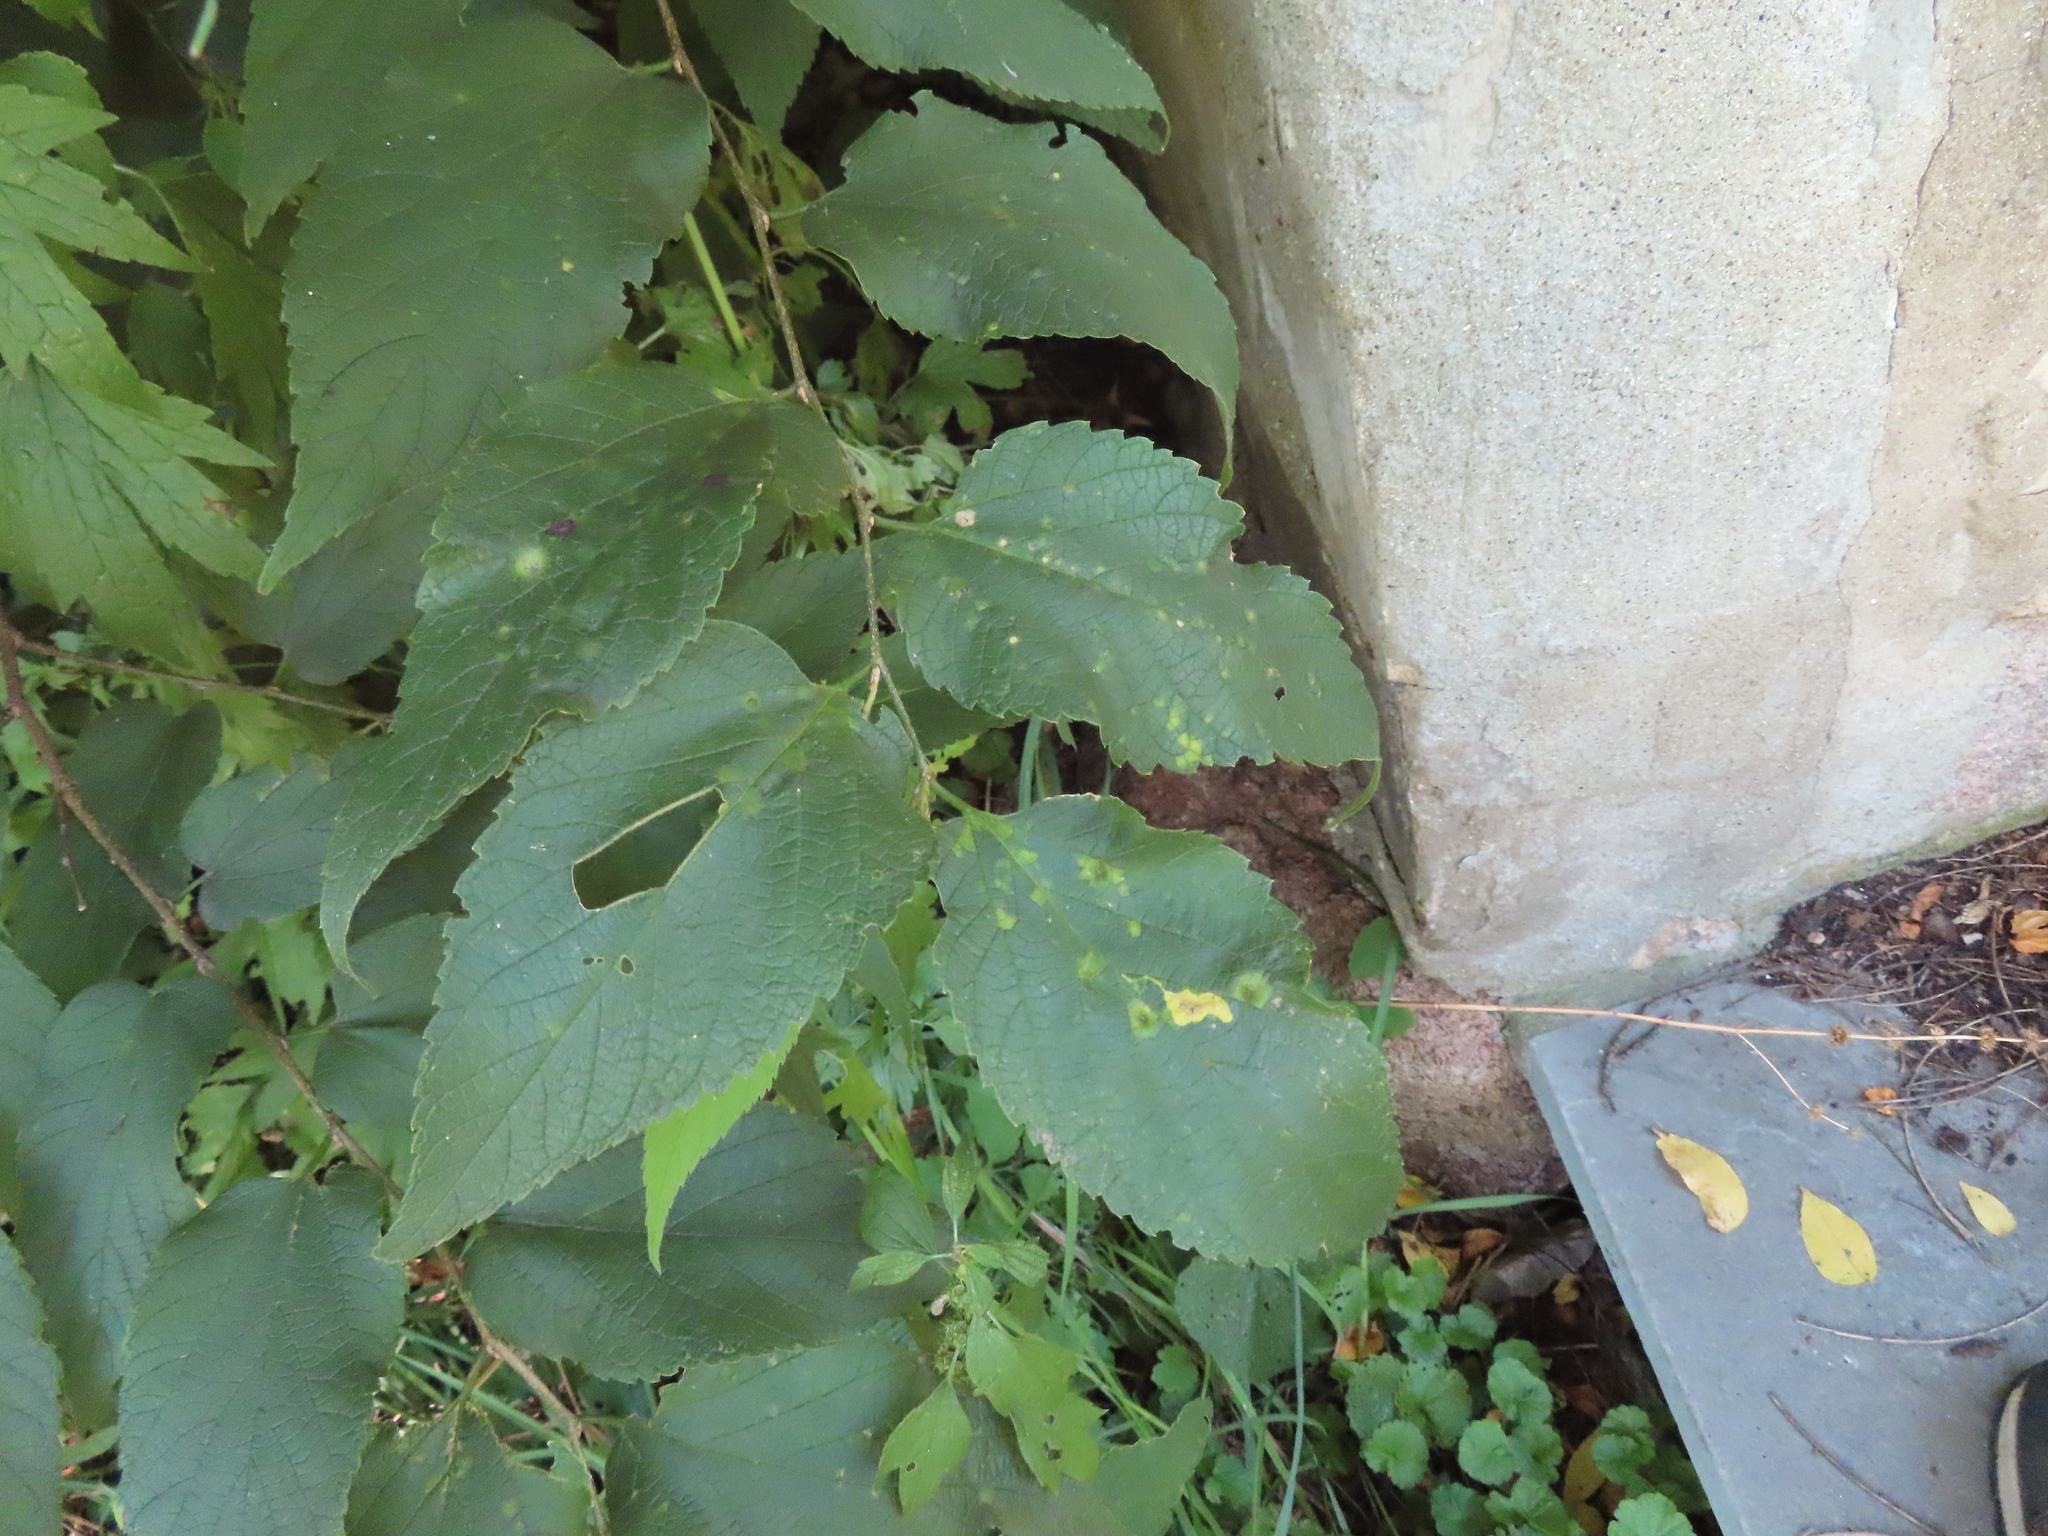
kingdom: Plantae
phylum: Tracheophyta
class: Magnoliopsida
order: Rosales
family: Cannabaceae
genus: Celtis
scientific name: Celtis occidentalis
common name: Common hackberry
